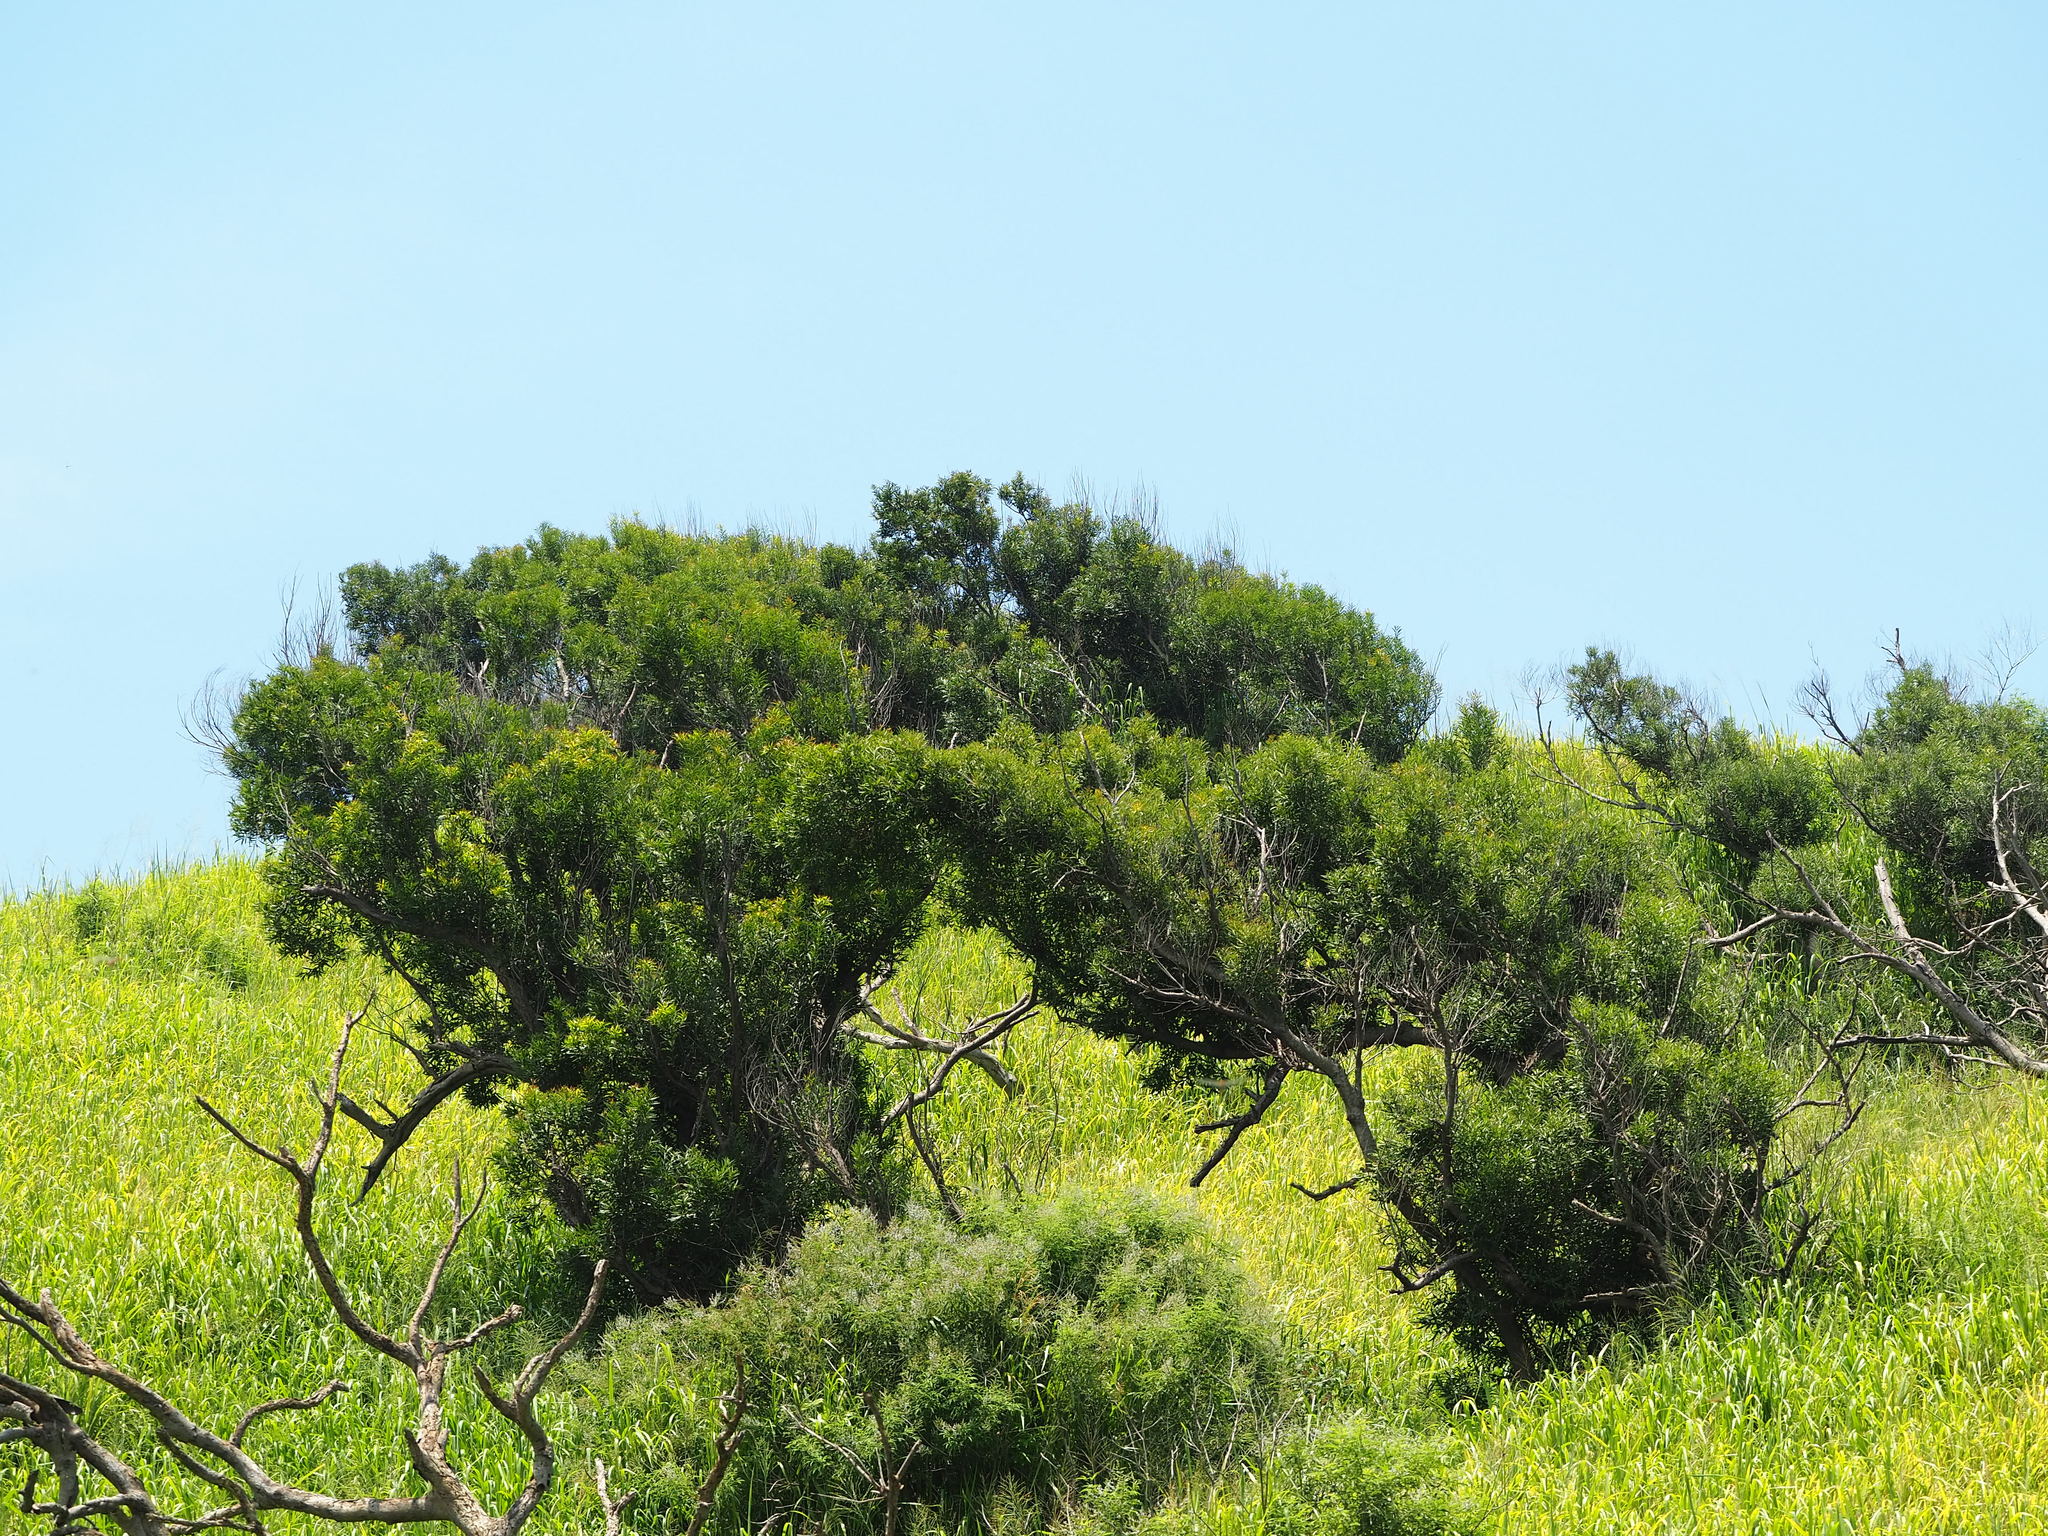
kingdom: Plantae
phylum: Tracheophyta
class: Magnoliopsida
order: Fabales
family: Fabaceae
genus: Acacia
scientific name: Acacia confusa
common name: Formosan koa
